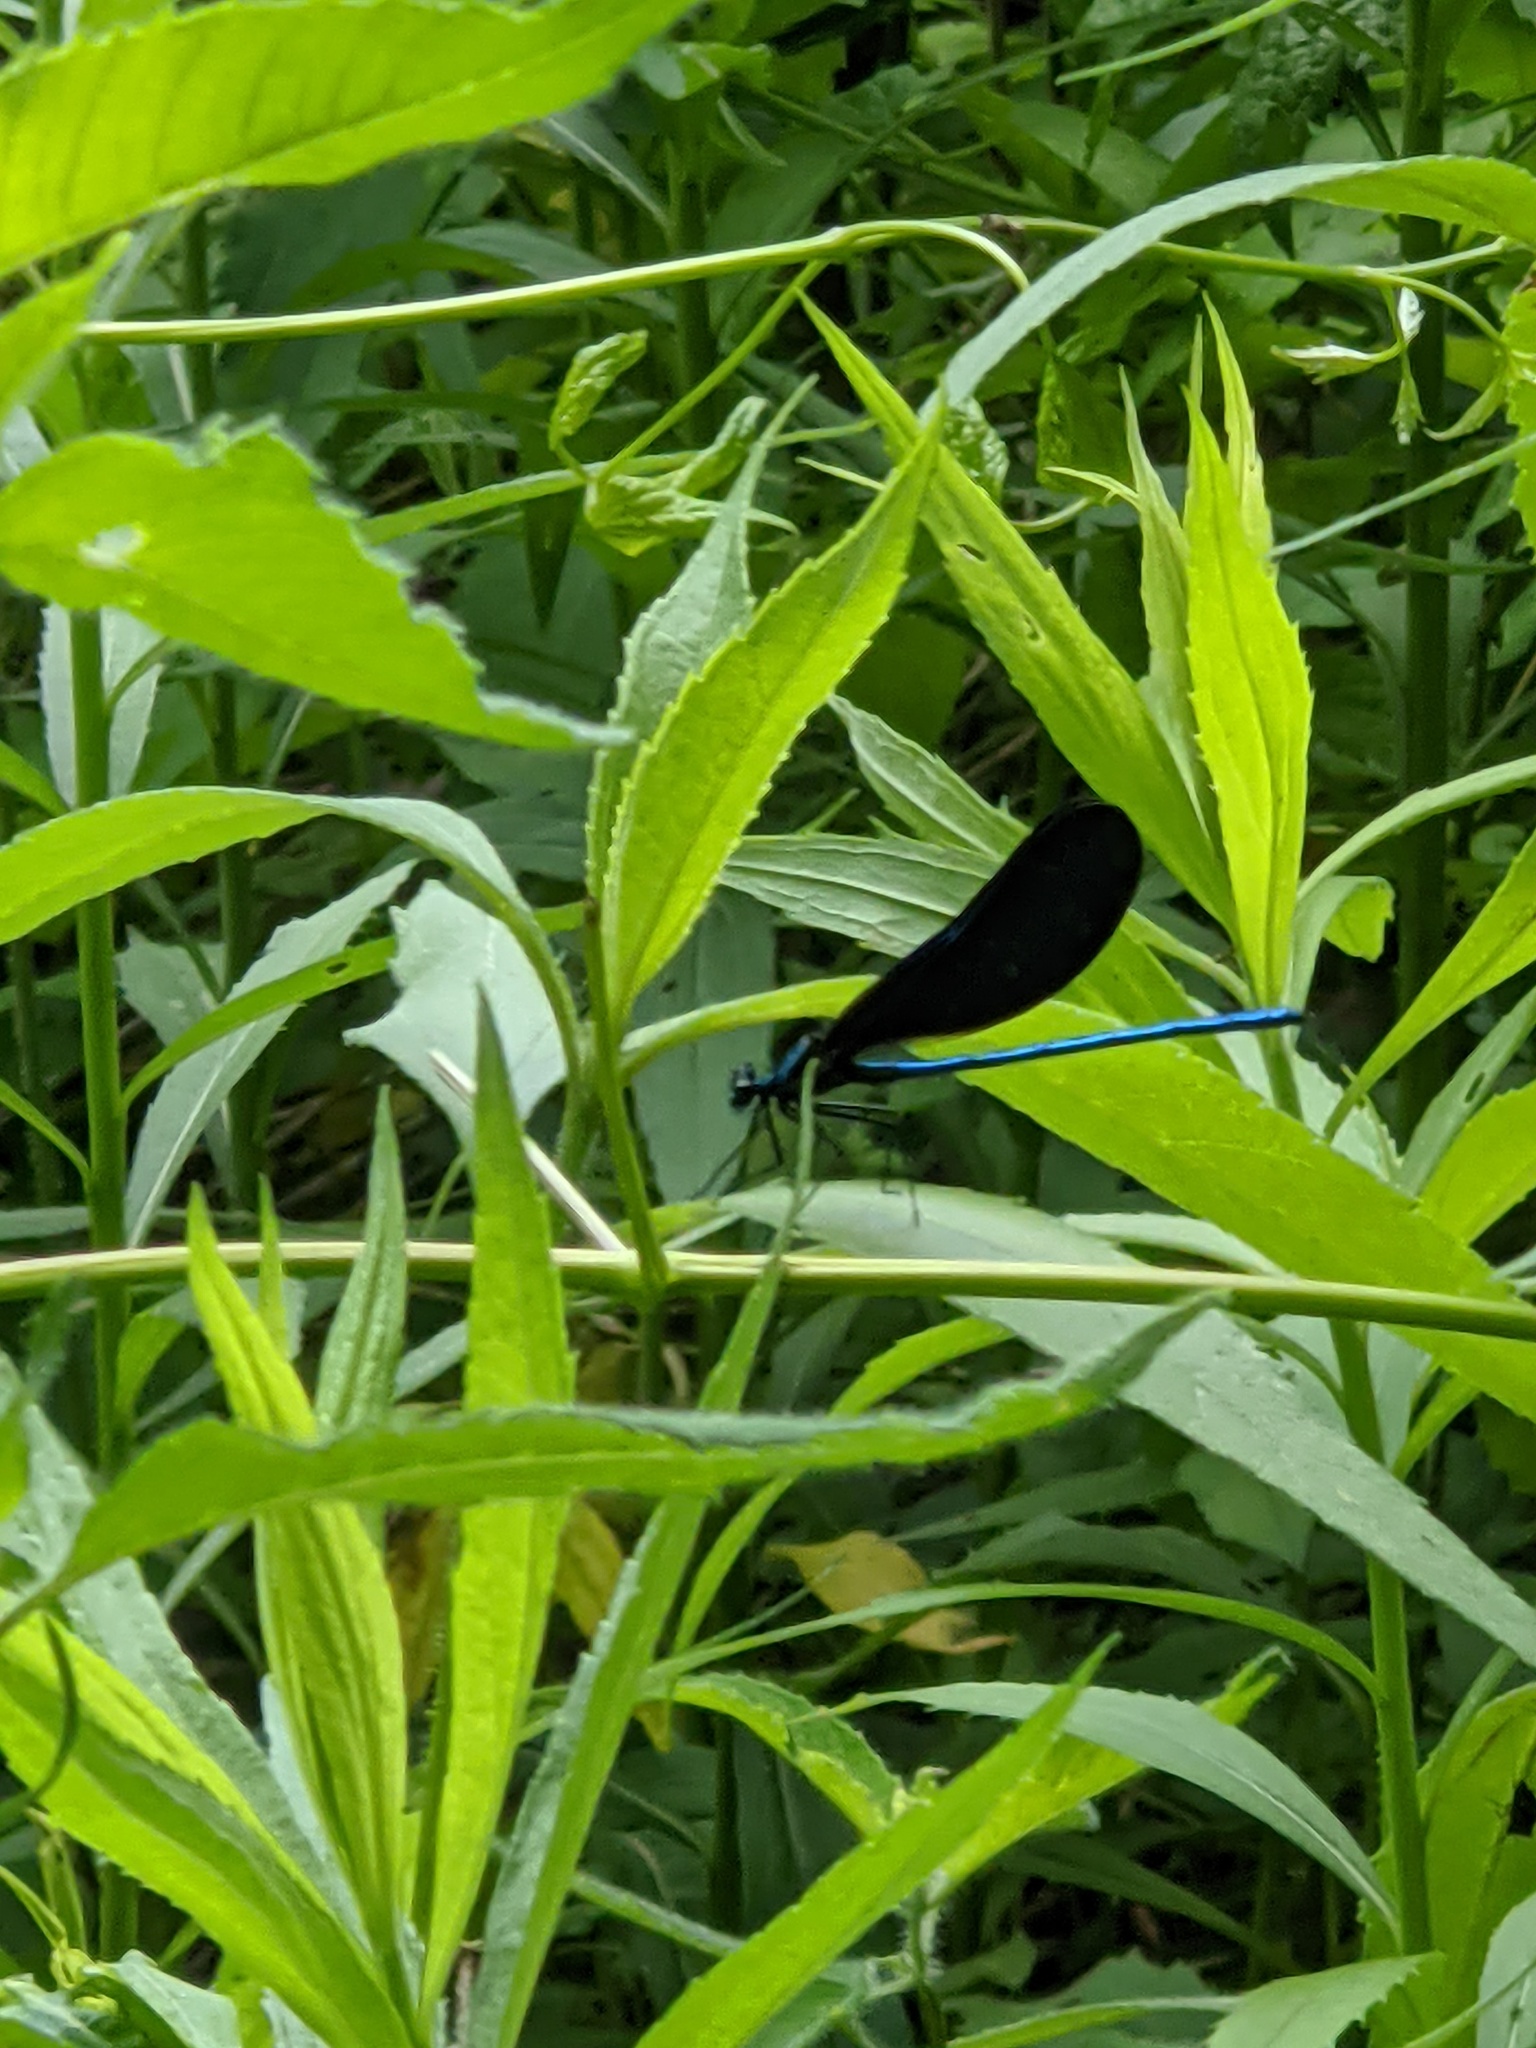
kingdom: Animalia
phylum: Arthropoda
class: Insecta
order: Odonata
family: Calopterygidae
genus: Calopteryx
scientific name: Calopteryx maculata
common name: Ebony jewelwing
